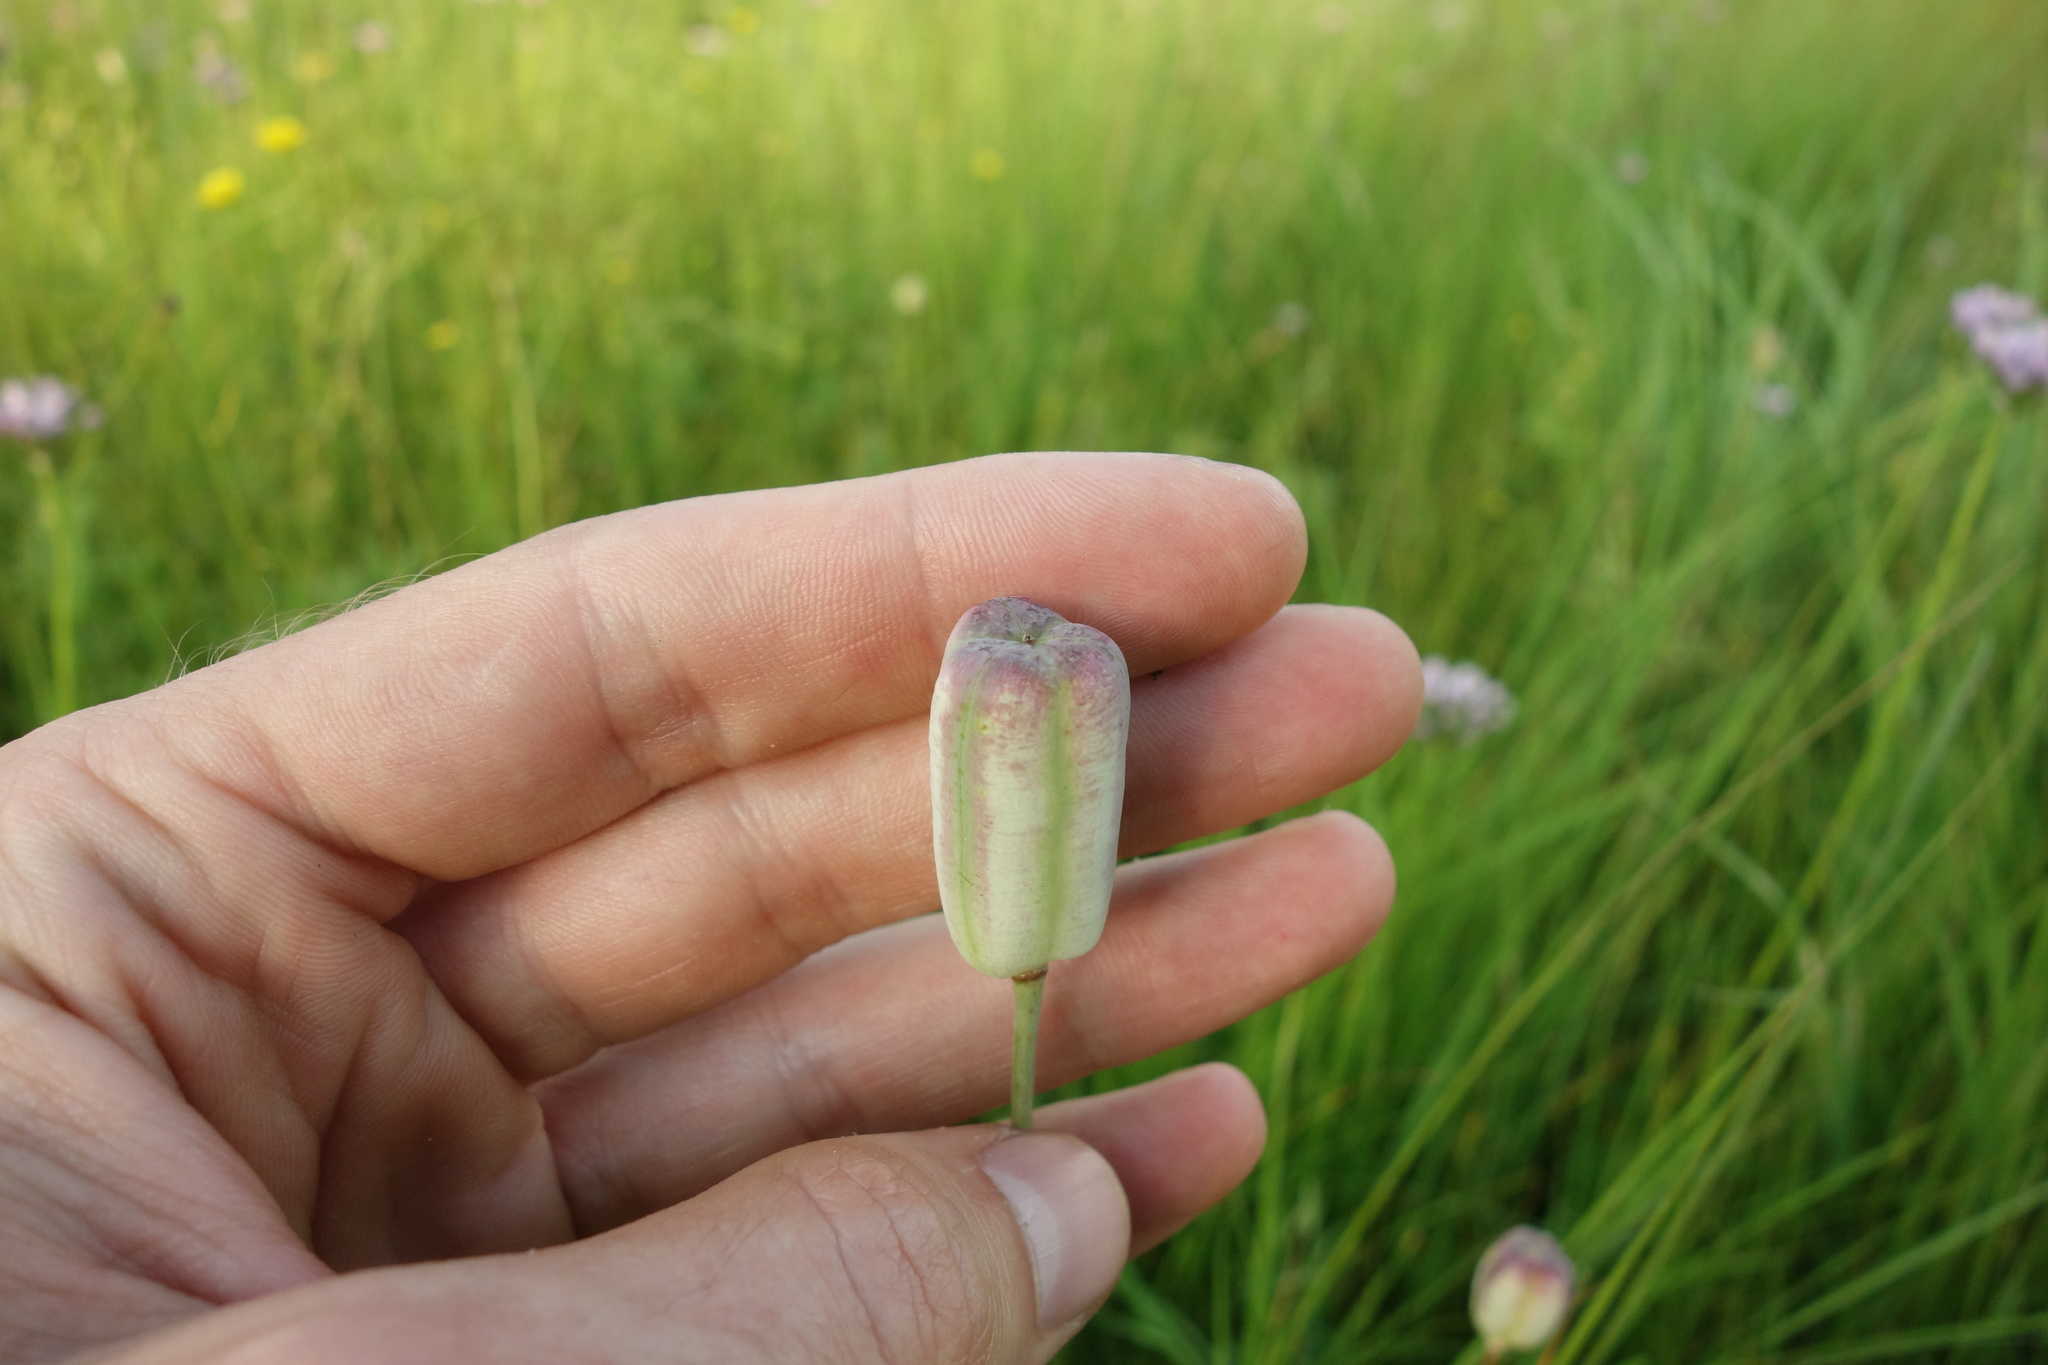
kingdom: Plantae
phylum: Tracheophyta
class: Liliopsida
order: Liliales
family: Liliaceae
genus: Fritillaria
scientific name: Fritillaria meleagroides
